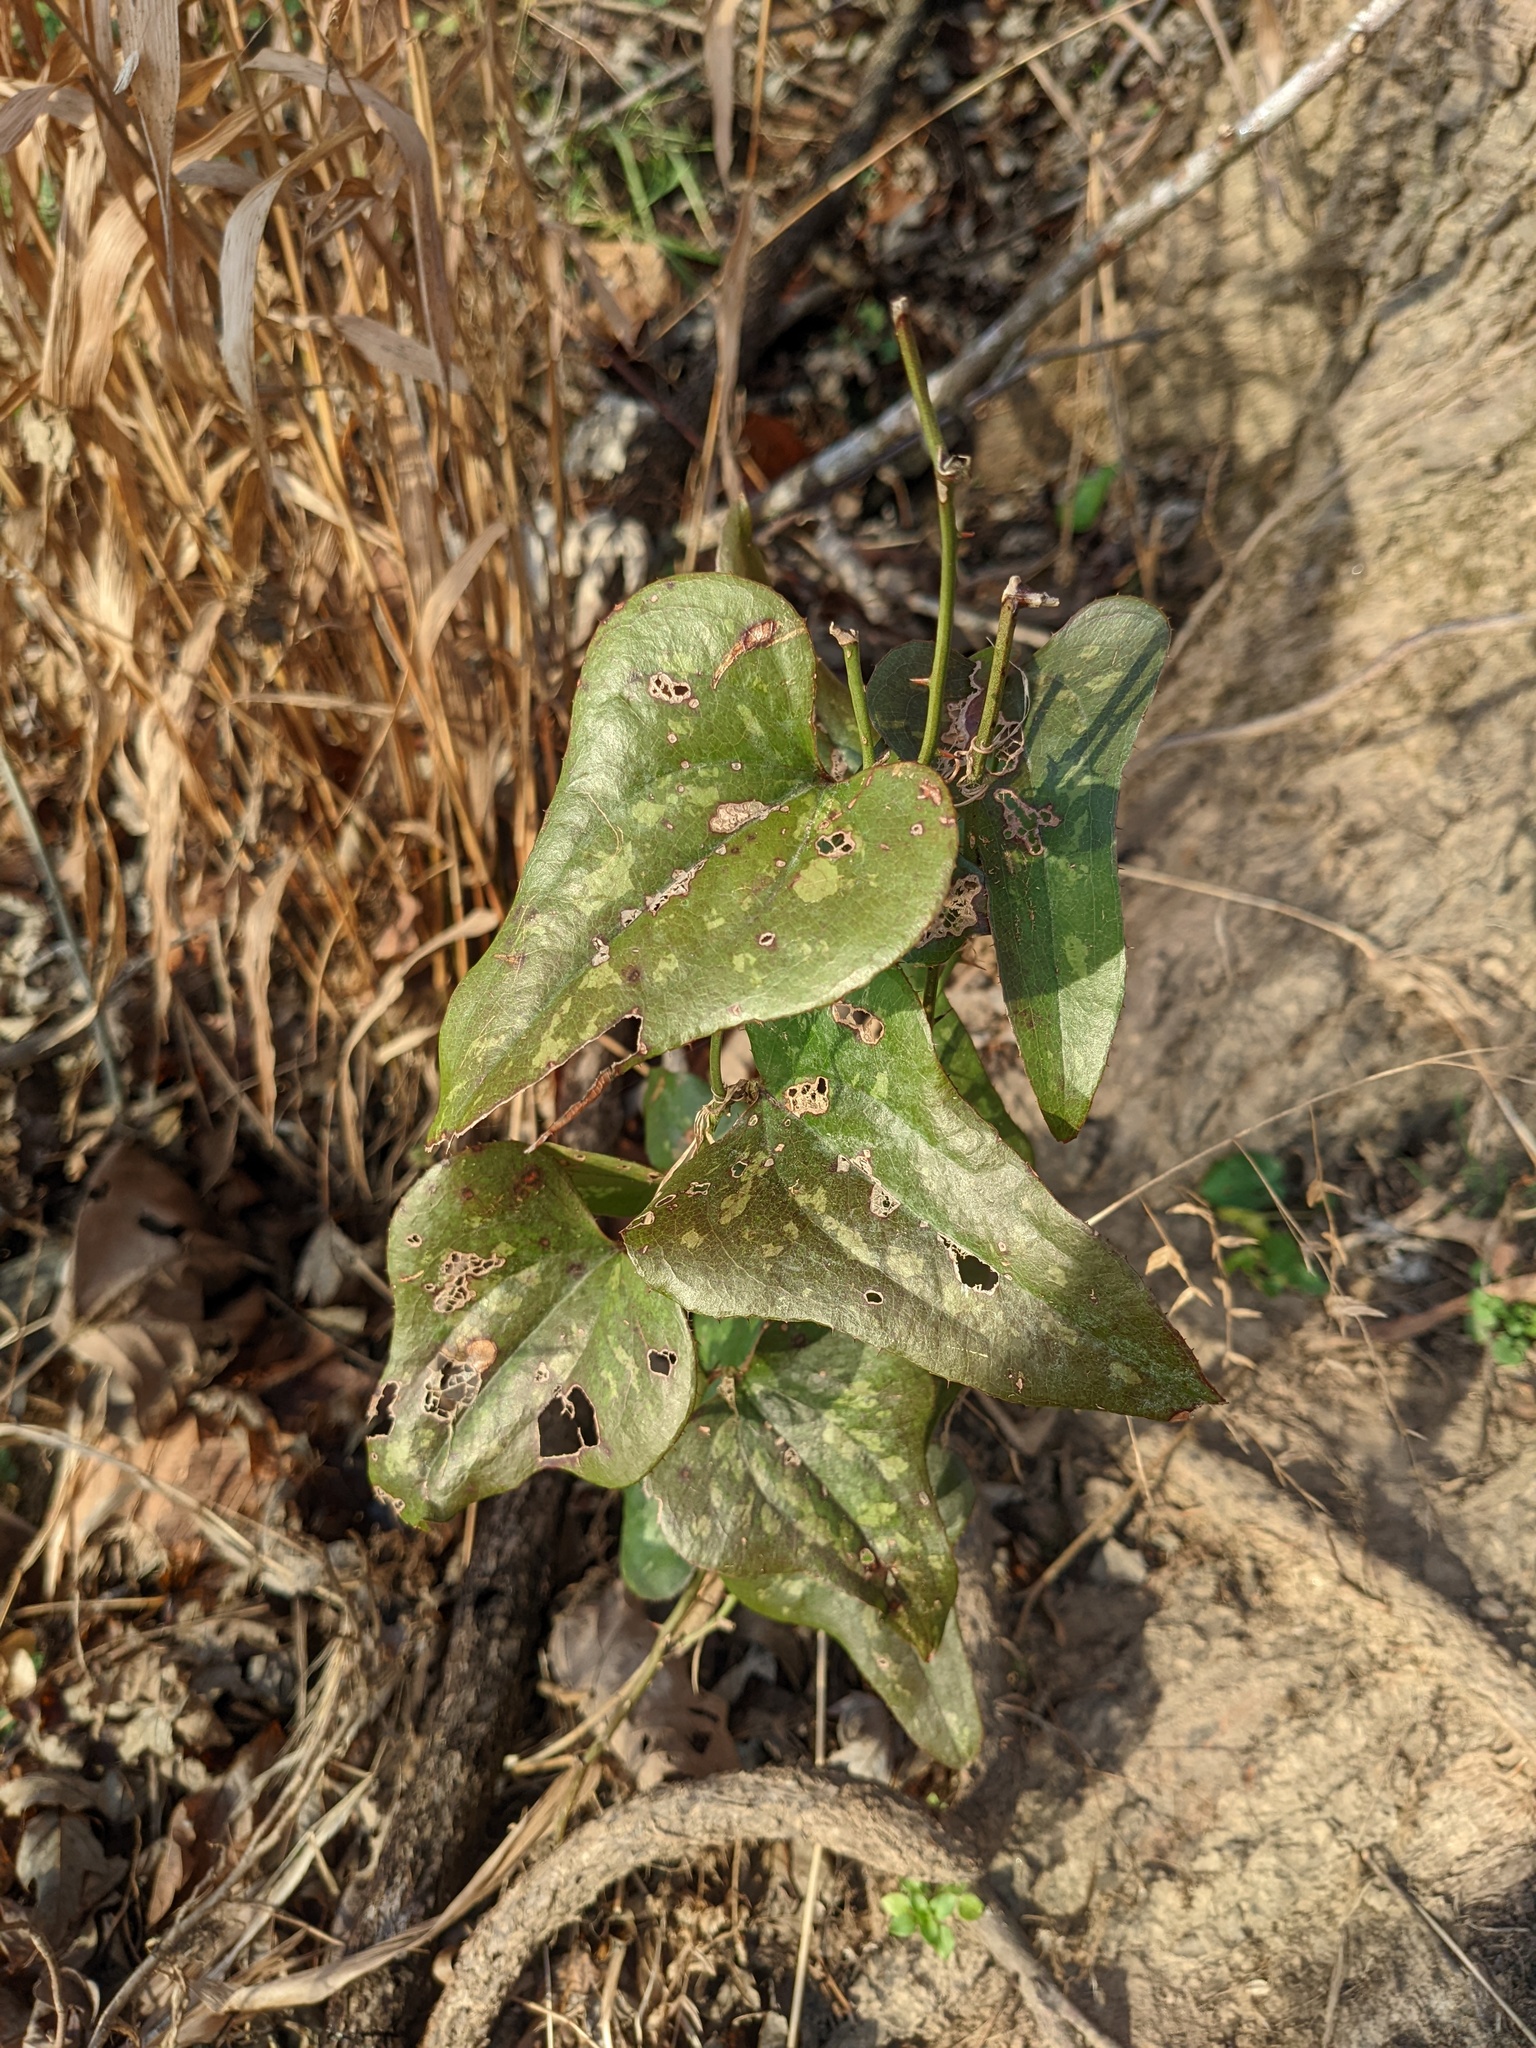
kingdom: Plantae
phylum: Tracheophyta
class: Liliopsida
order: Liliales
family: Smilacaceae
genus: Smilax
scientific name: Smilax bona-nox
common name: Catbrier
